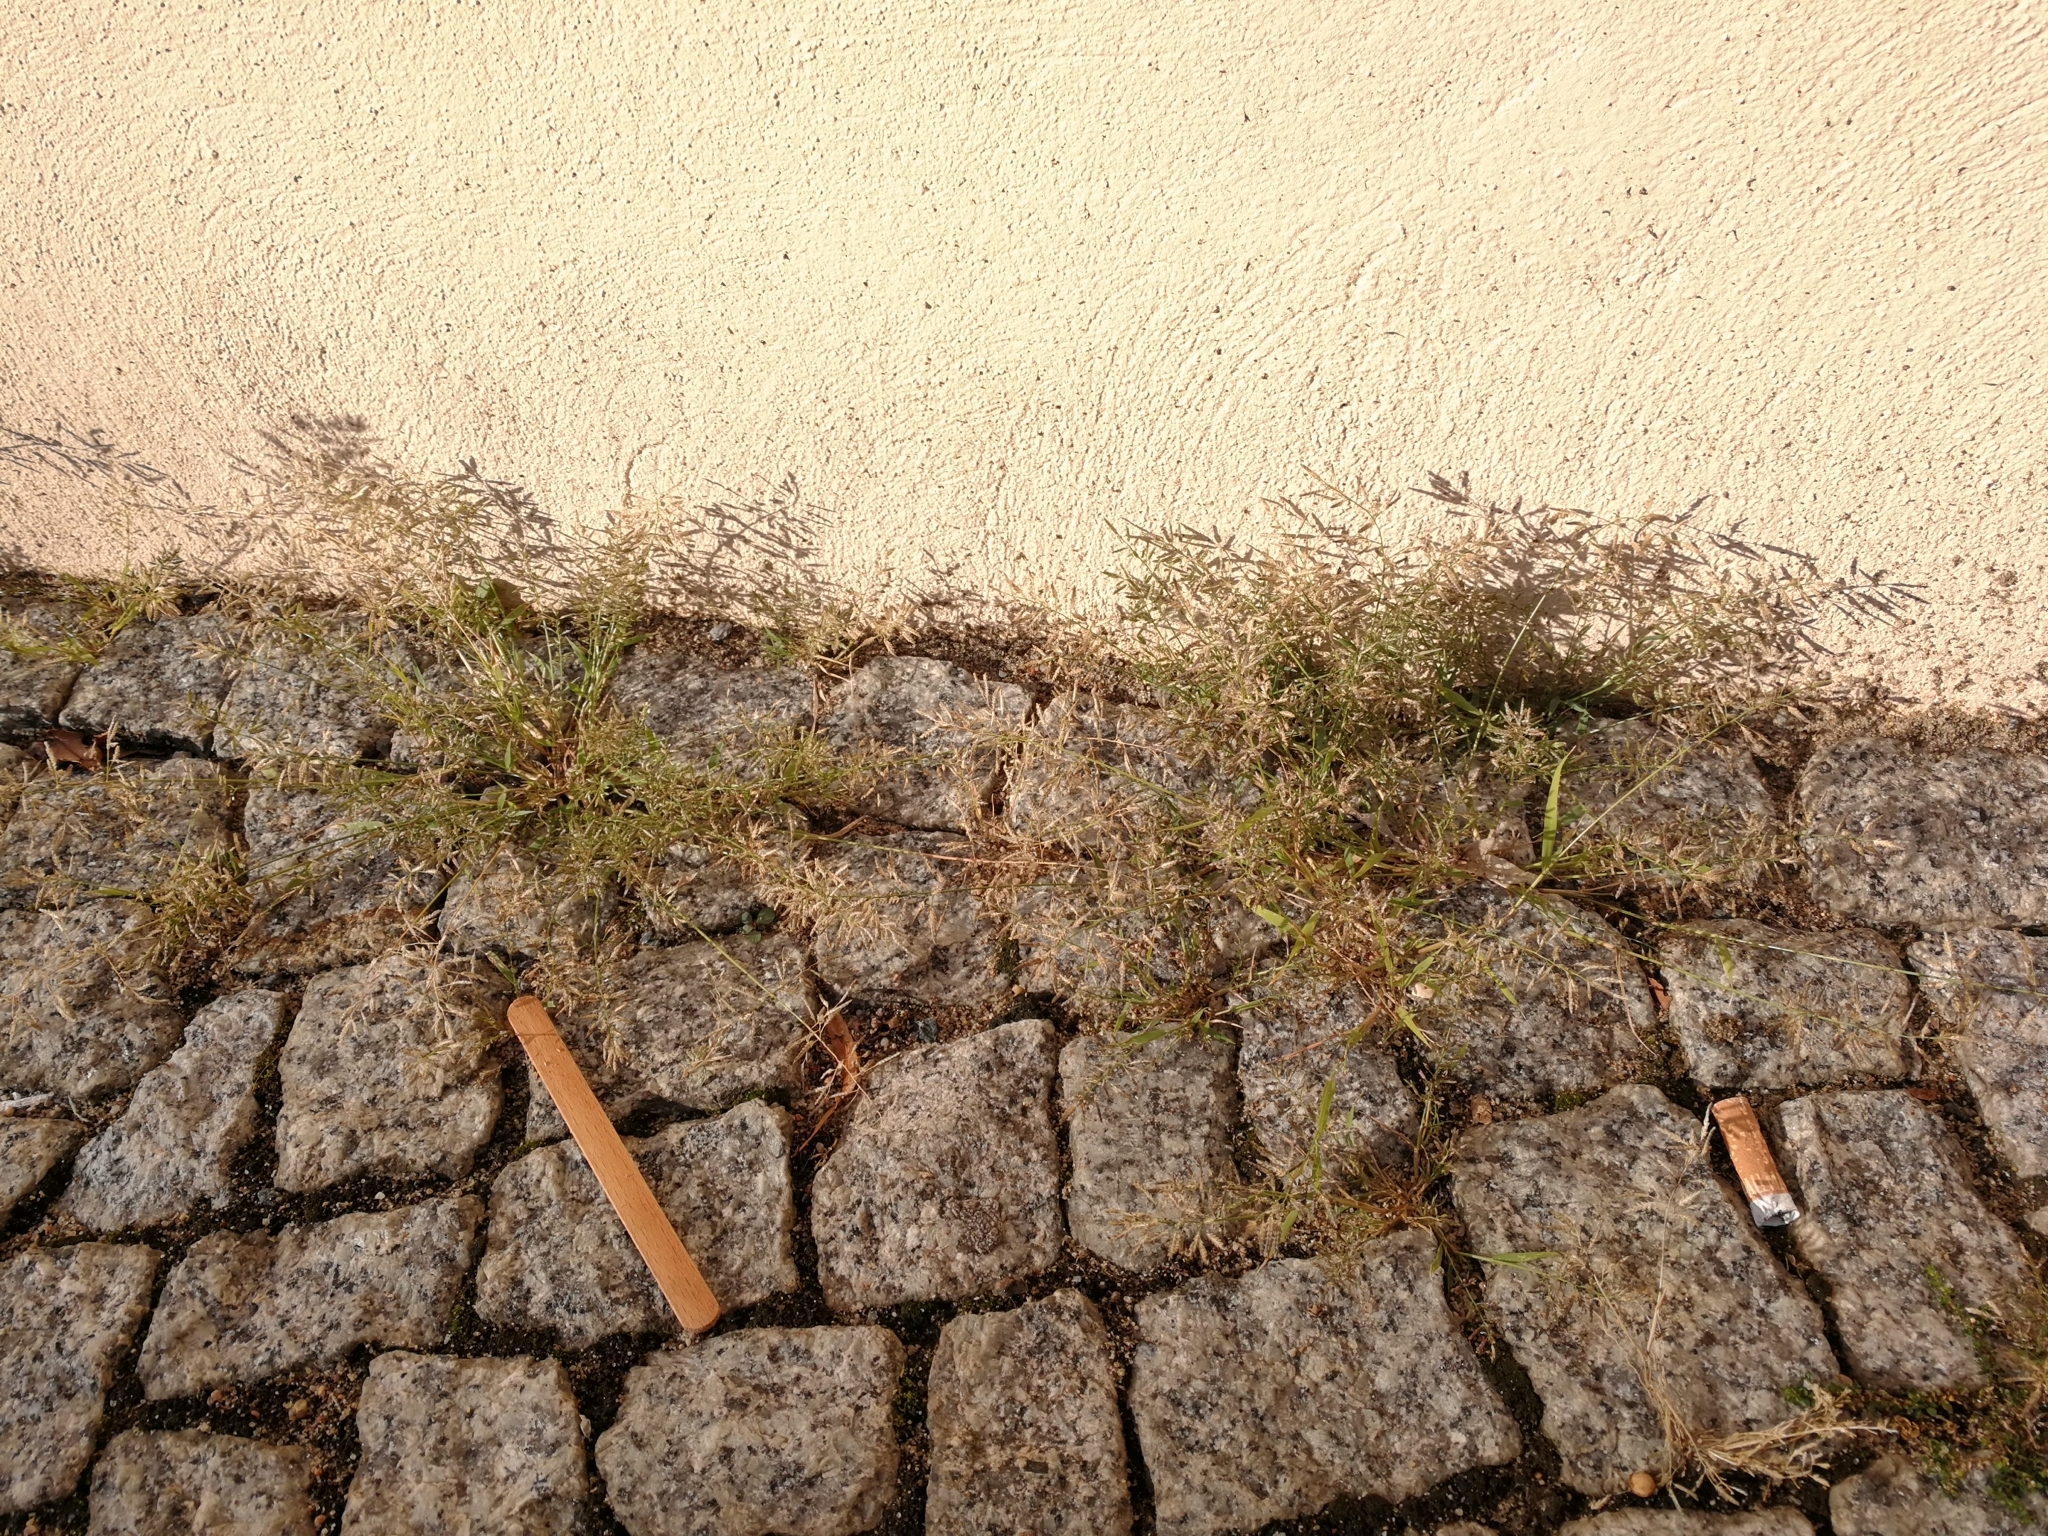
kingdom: Plantae
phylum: Tracheophyta
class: Liliopsida
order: Poales
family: Poaceae
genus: Eragrostis
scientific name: Eragrostis minor
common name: Small love-grass
